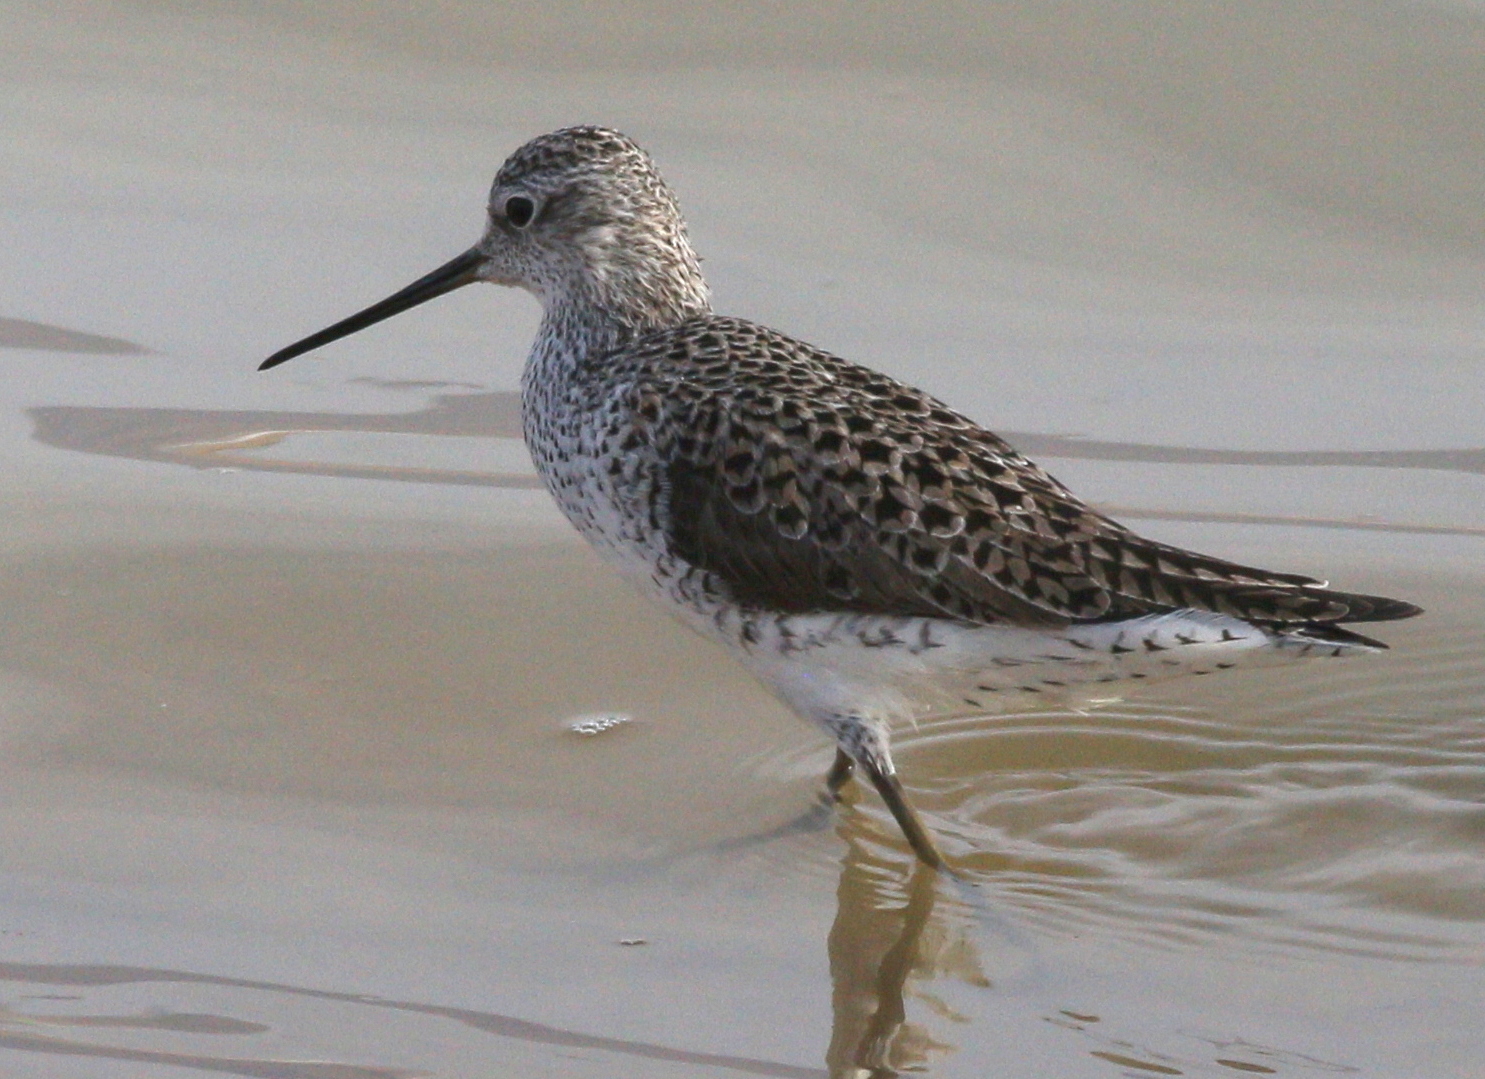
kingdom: Animalia
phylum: Chordata
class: Aves
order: Charadriiformes
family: Scolopacidae
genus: Tringa
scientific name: Tringa stagnatilis
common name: Marsh sandpiper
